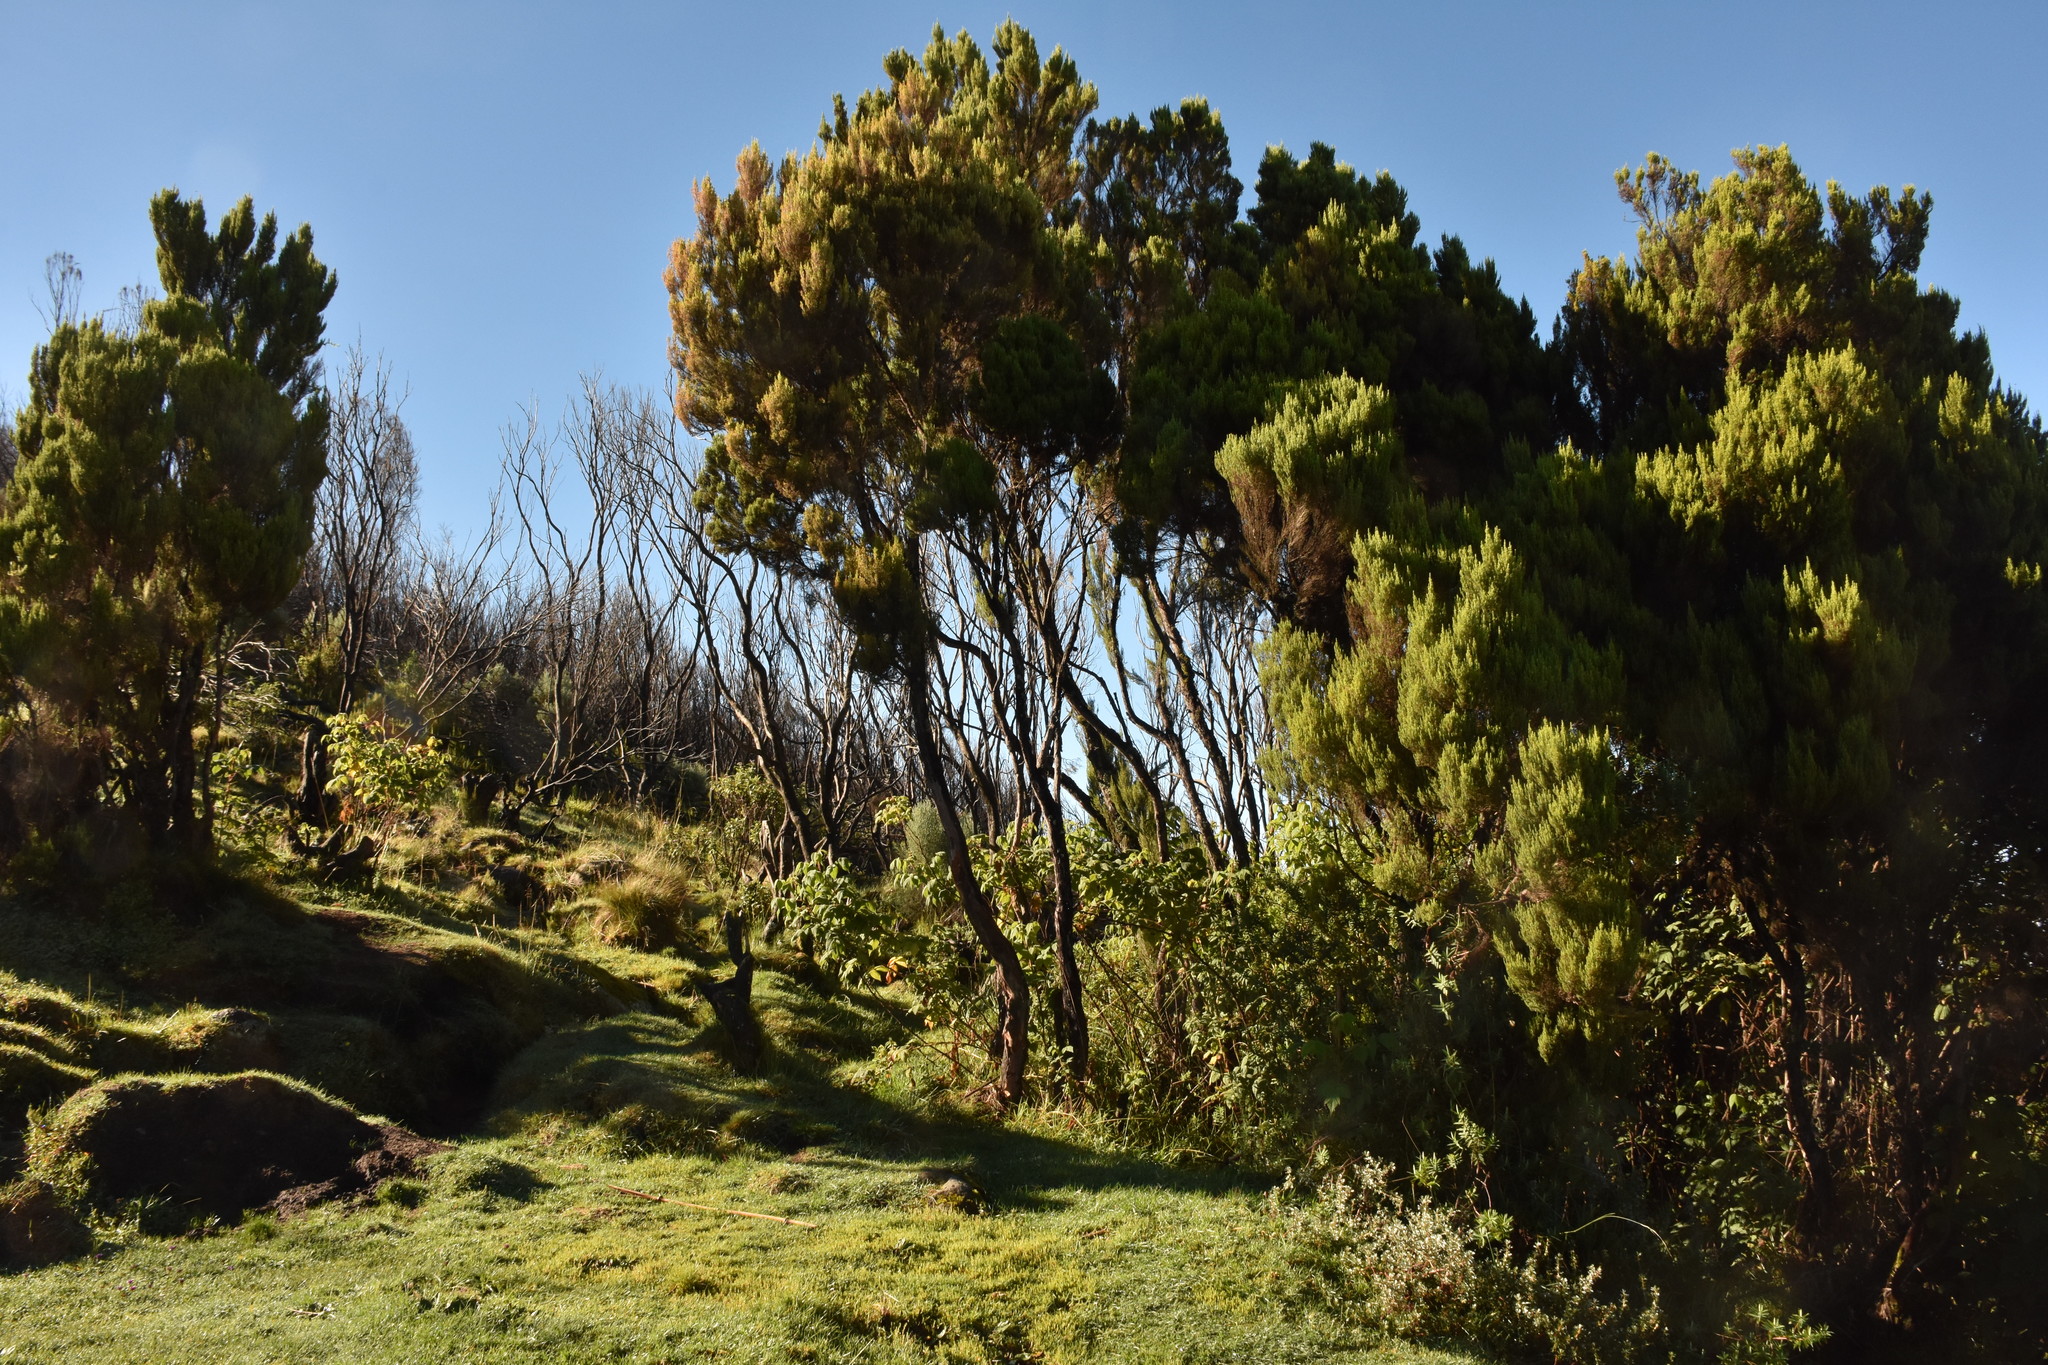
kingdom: Plantae
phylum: Tracheophyta
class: Magnoliopsida
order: Ericales
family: Ericaceae
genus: Erica
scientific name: Erica arborea
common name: Tree heath
